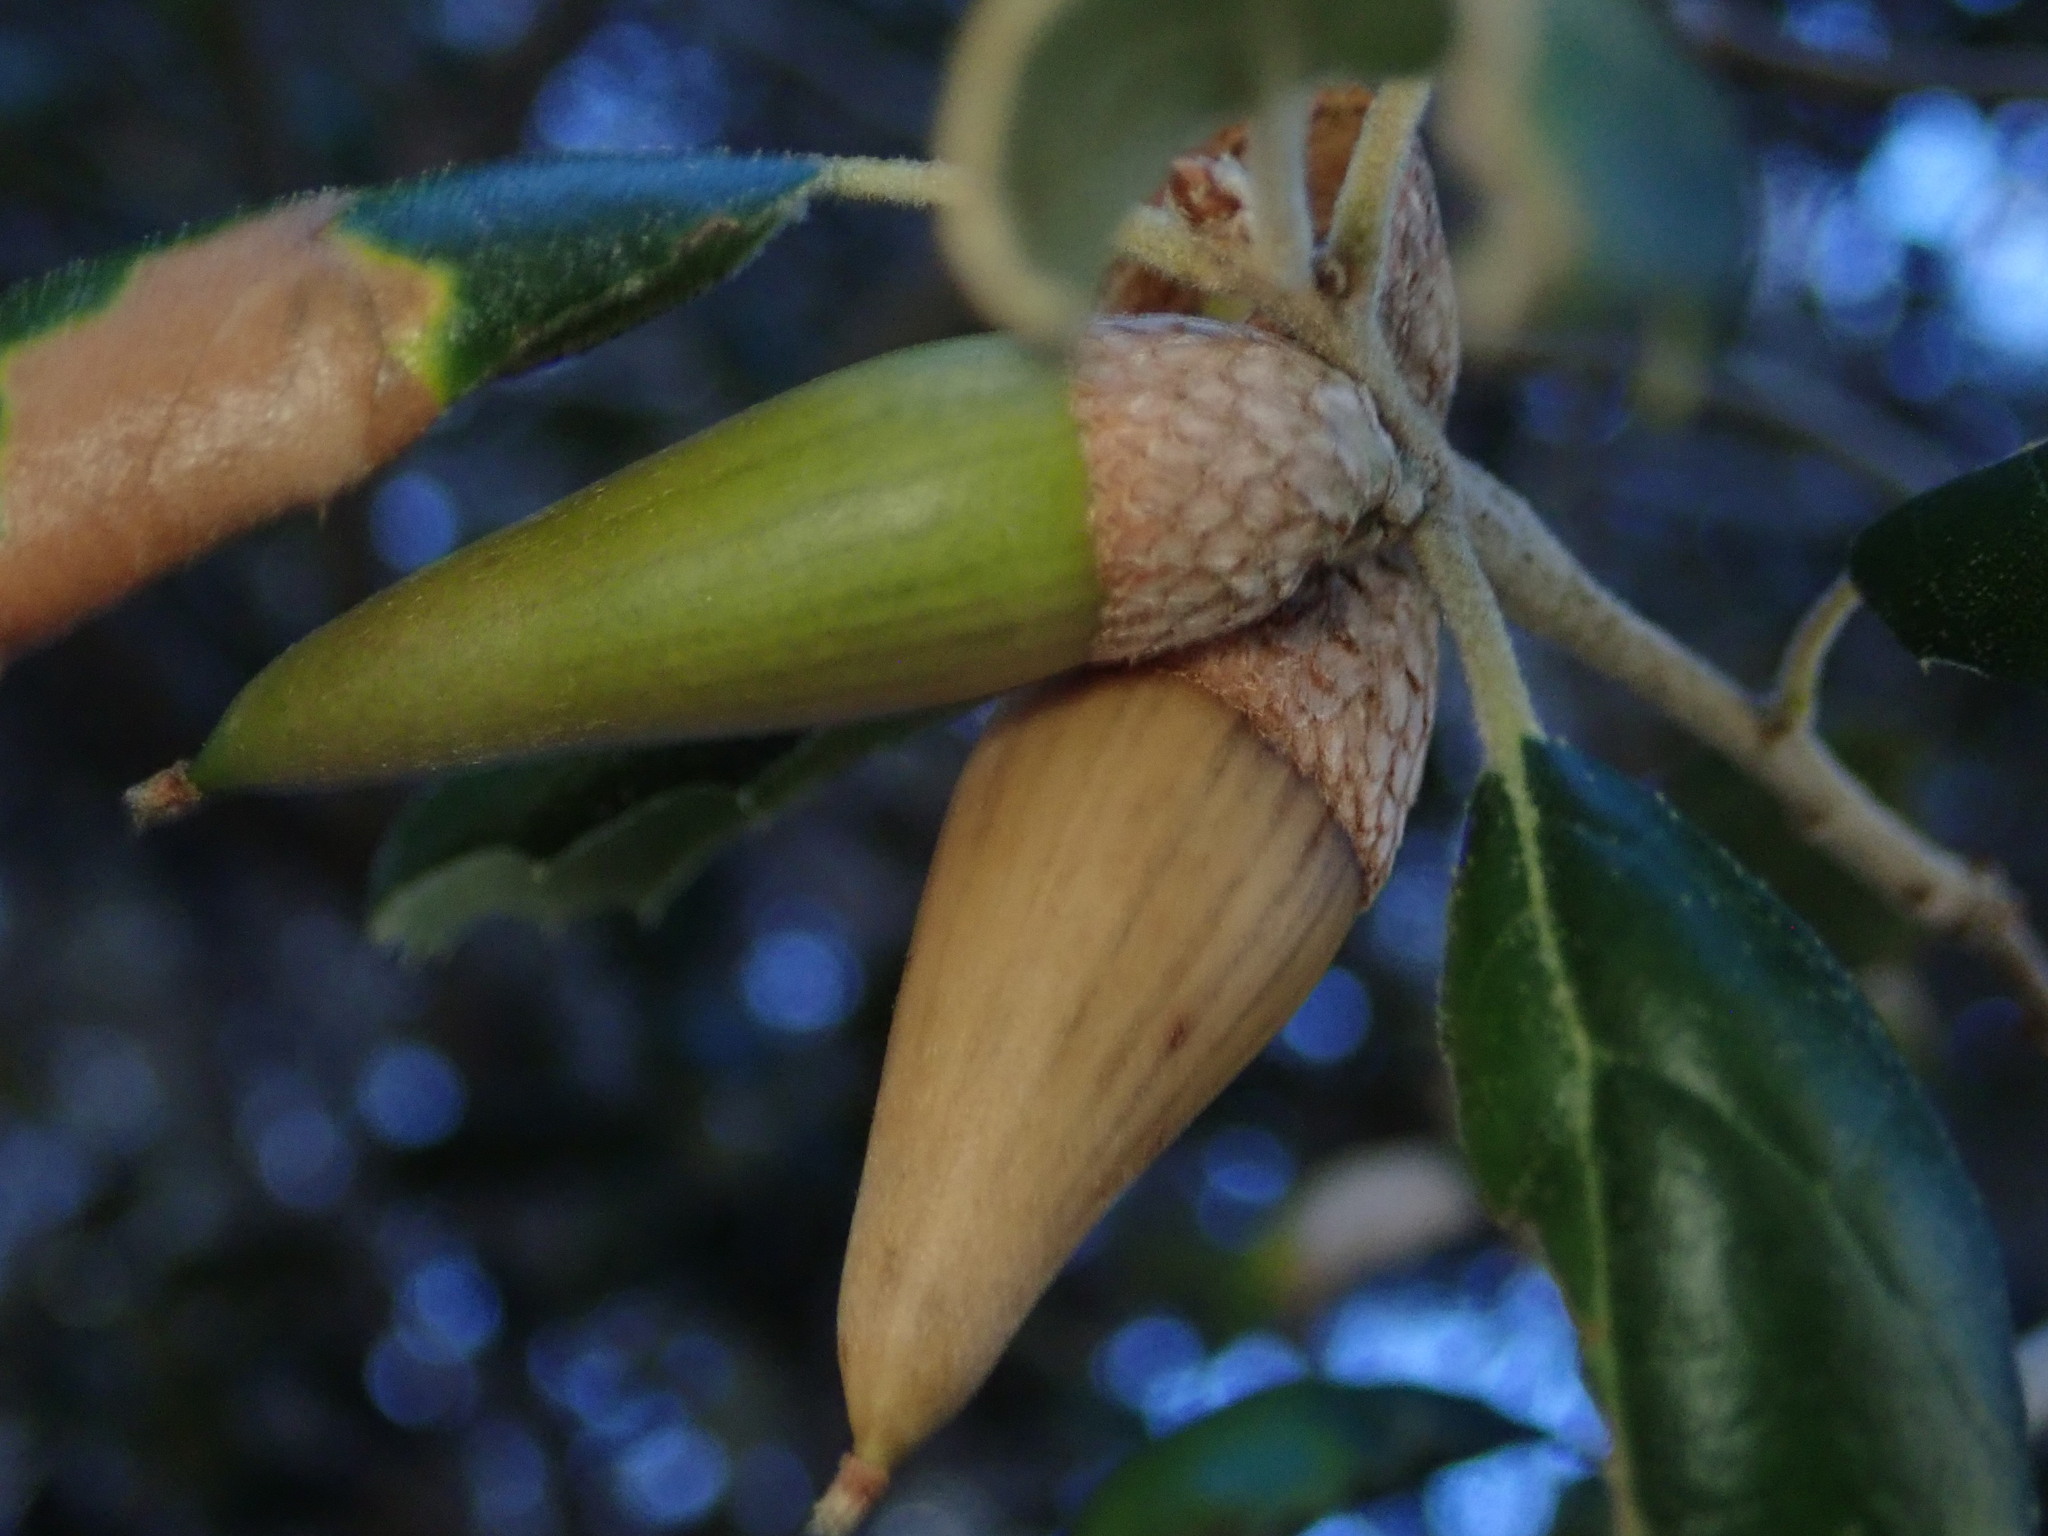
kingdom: Plantae
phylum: Tracheophyta
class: Magnoliopsida
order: Fagales
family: Fagaceae
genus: Quercus
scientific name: Quercus agrifolia
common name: California live oak
